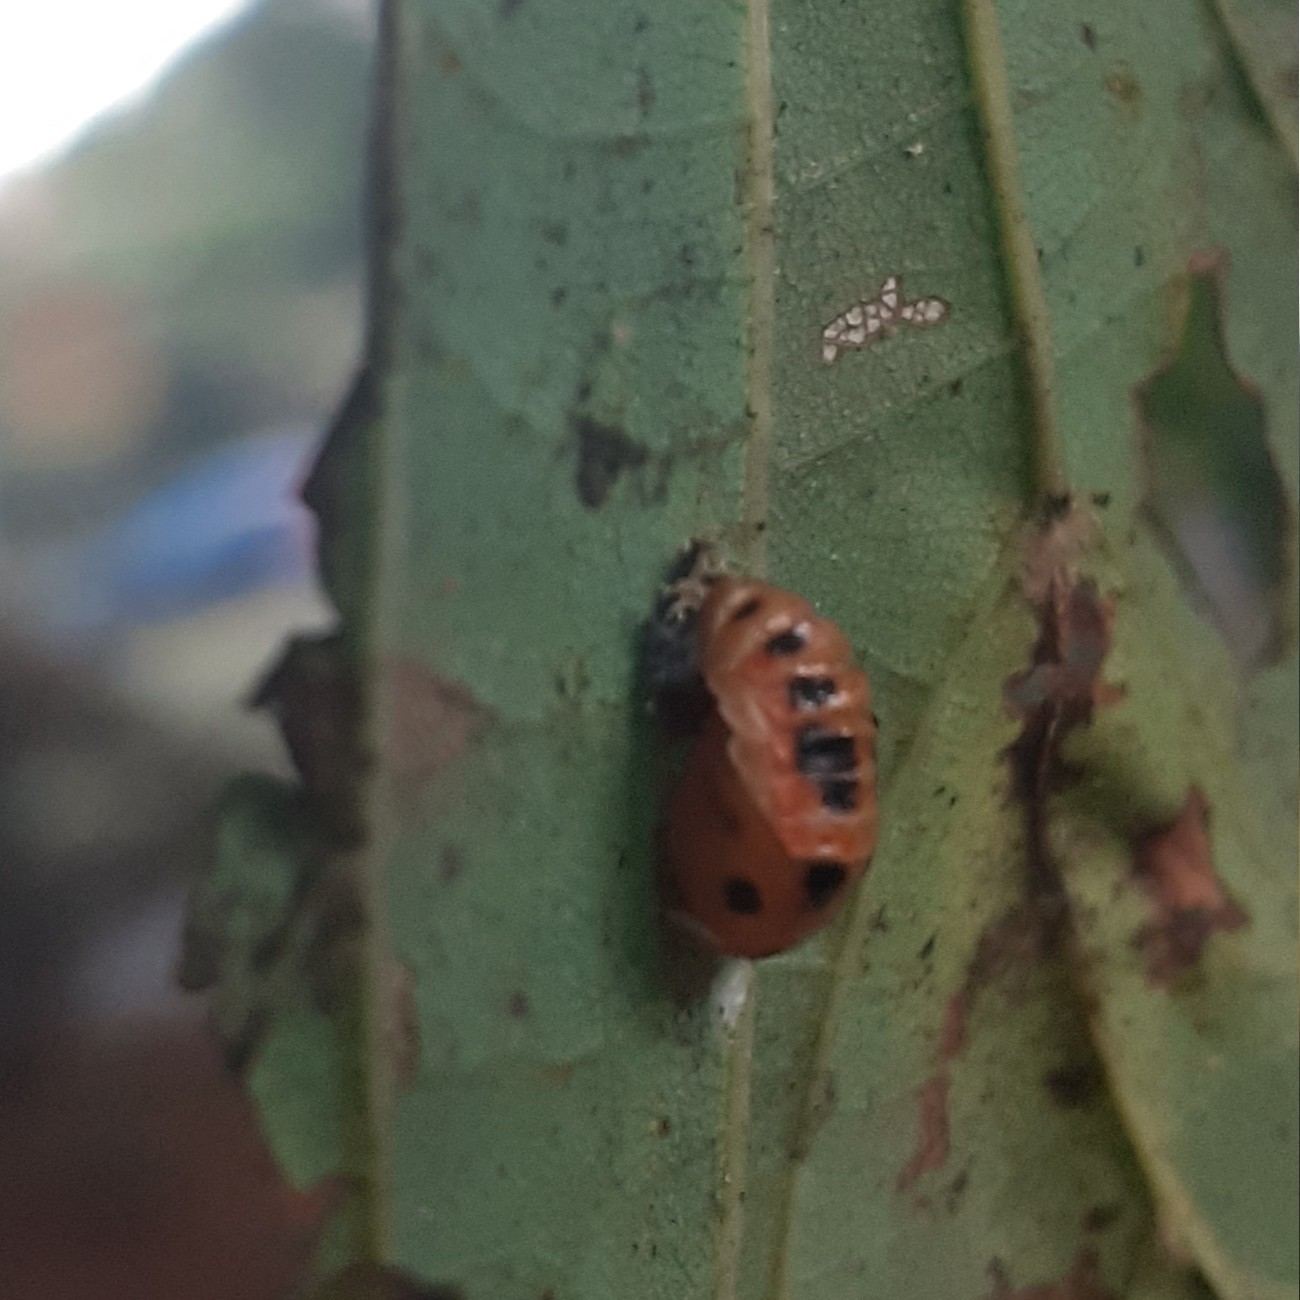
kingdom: Animalia
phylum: Arthropoda
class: Insecta
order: Coleoptera
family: Coccinellidae
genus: Harmonia
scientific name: Harmonia axyridis
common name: Harlequin ladybird
